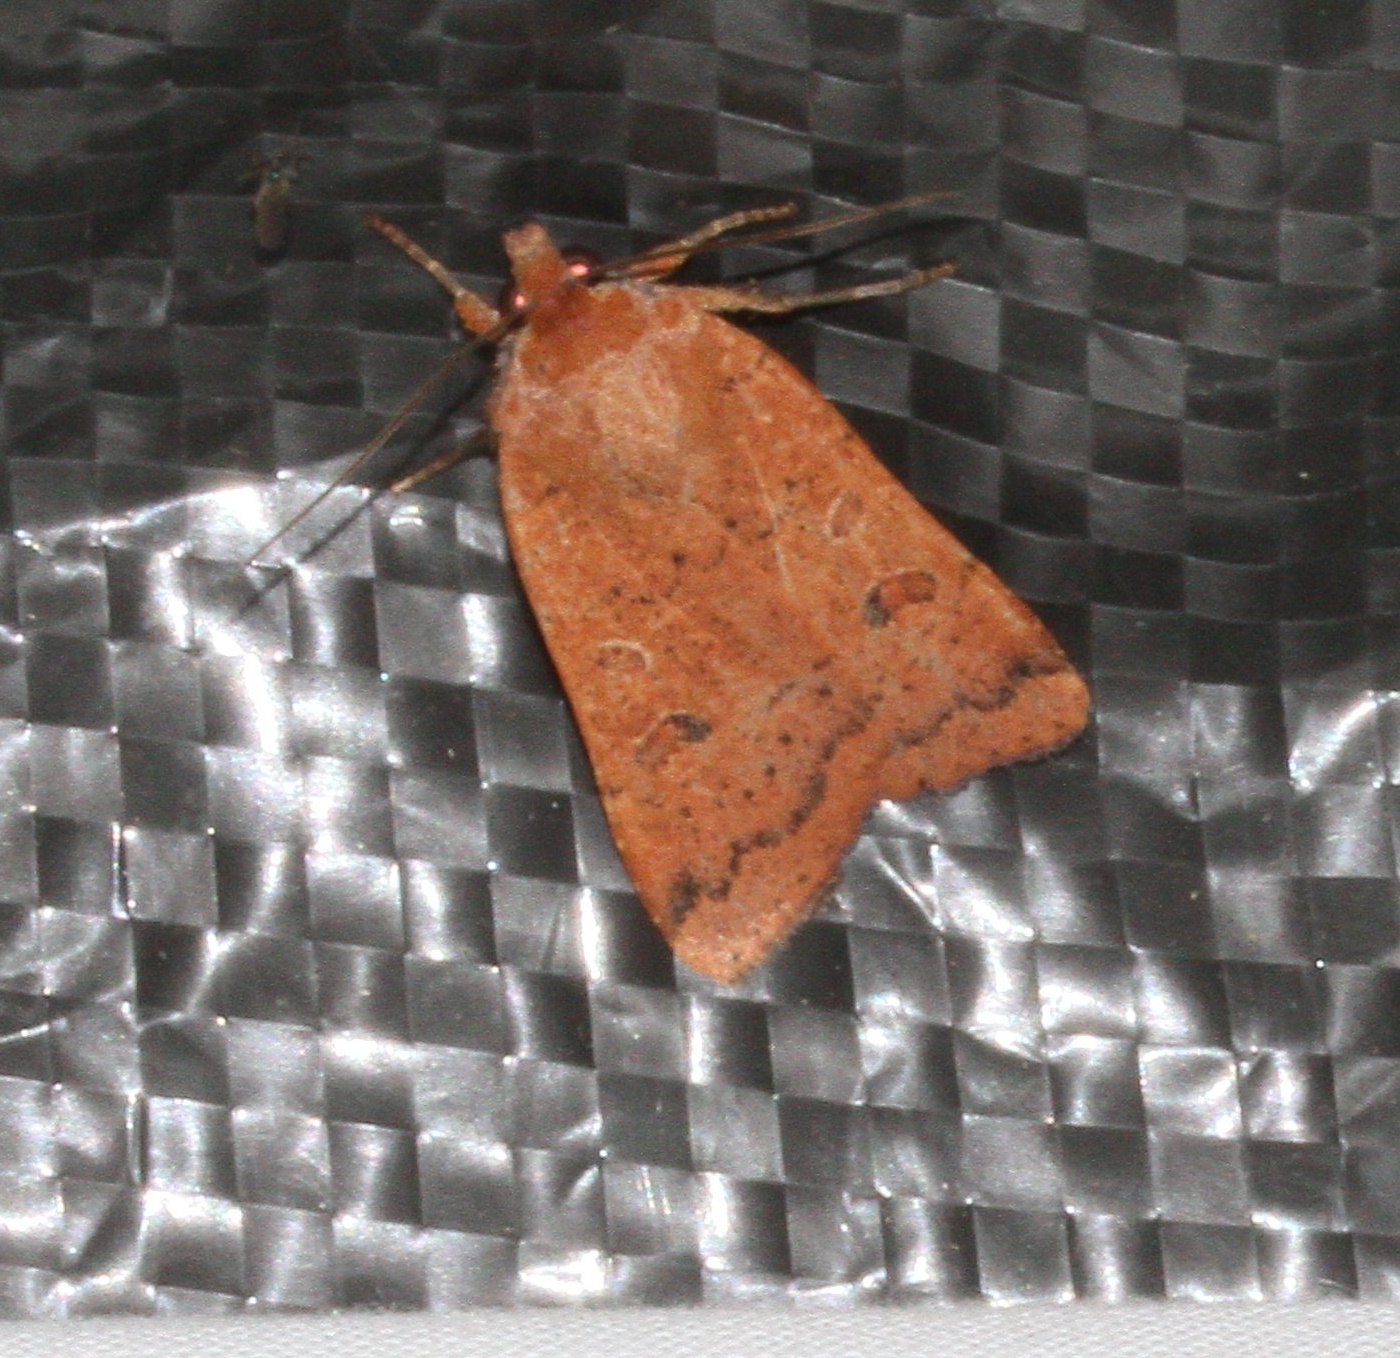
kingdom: Animalia
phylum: Arthropoda
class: Insecta
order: Lepidoptera
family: Noctuidae
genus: Noctua
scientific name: Noctua comes
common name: Lesser yellow underwing
